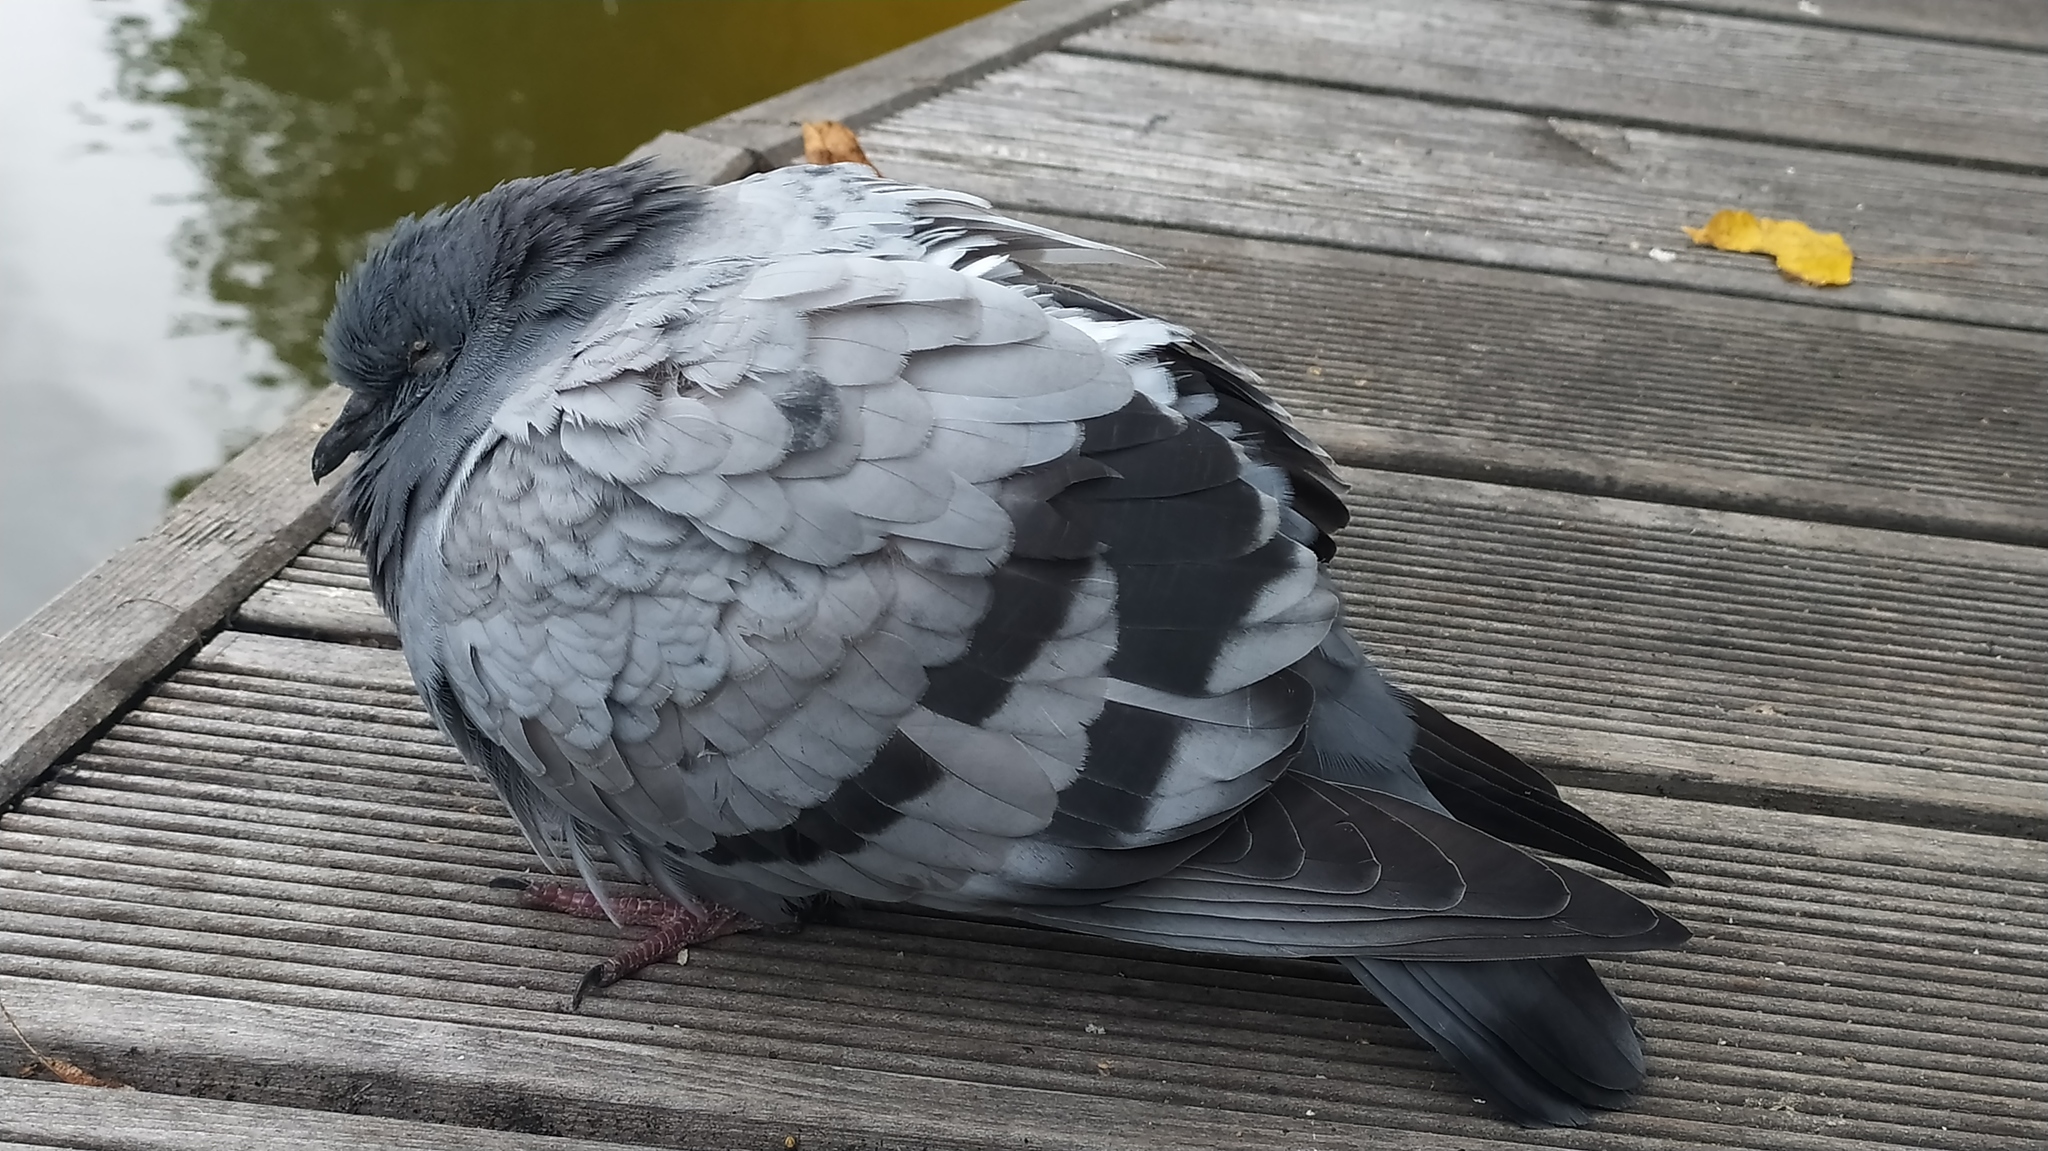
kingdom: Animalia
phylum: Chordata
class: Aves
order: Columbiformes
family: Columbidae
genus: Columba
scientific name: Columba livia
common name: Rock pigeon
